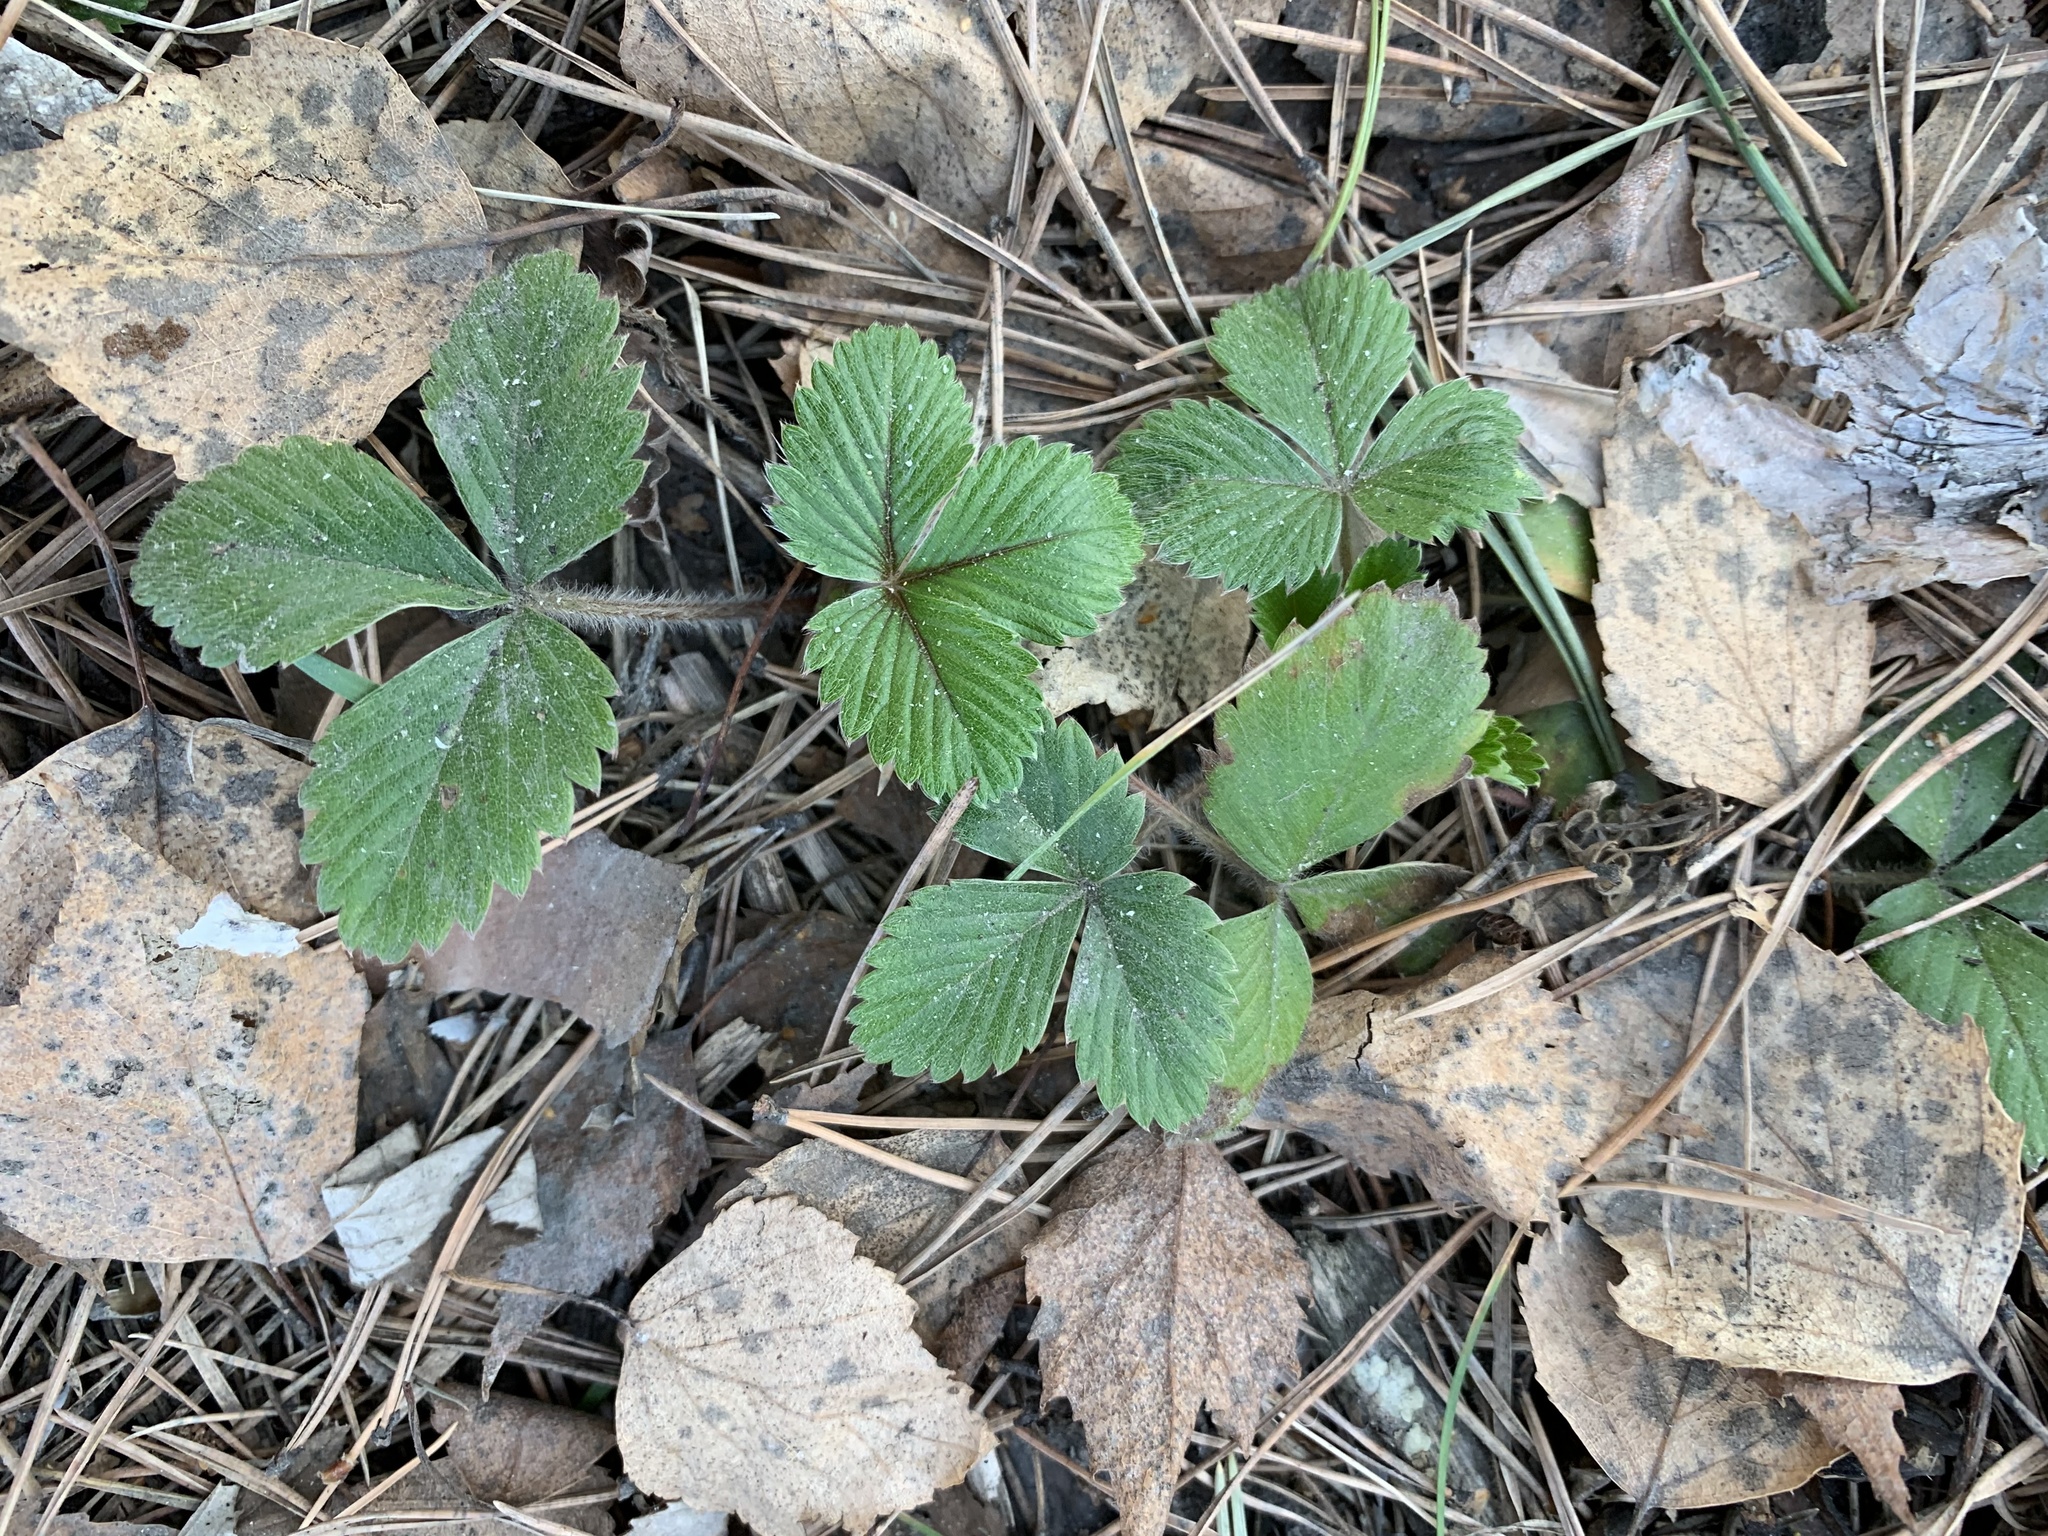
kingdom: Plantae
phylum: Tracheophyta
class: Magnoliopsida
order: Rosales
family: Rosaceae
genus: Fragaria
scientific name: Fragaria vesca
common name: Wild strawberry
